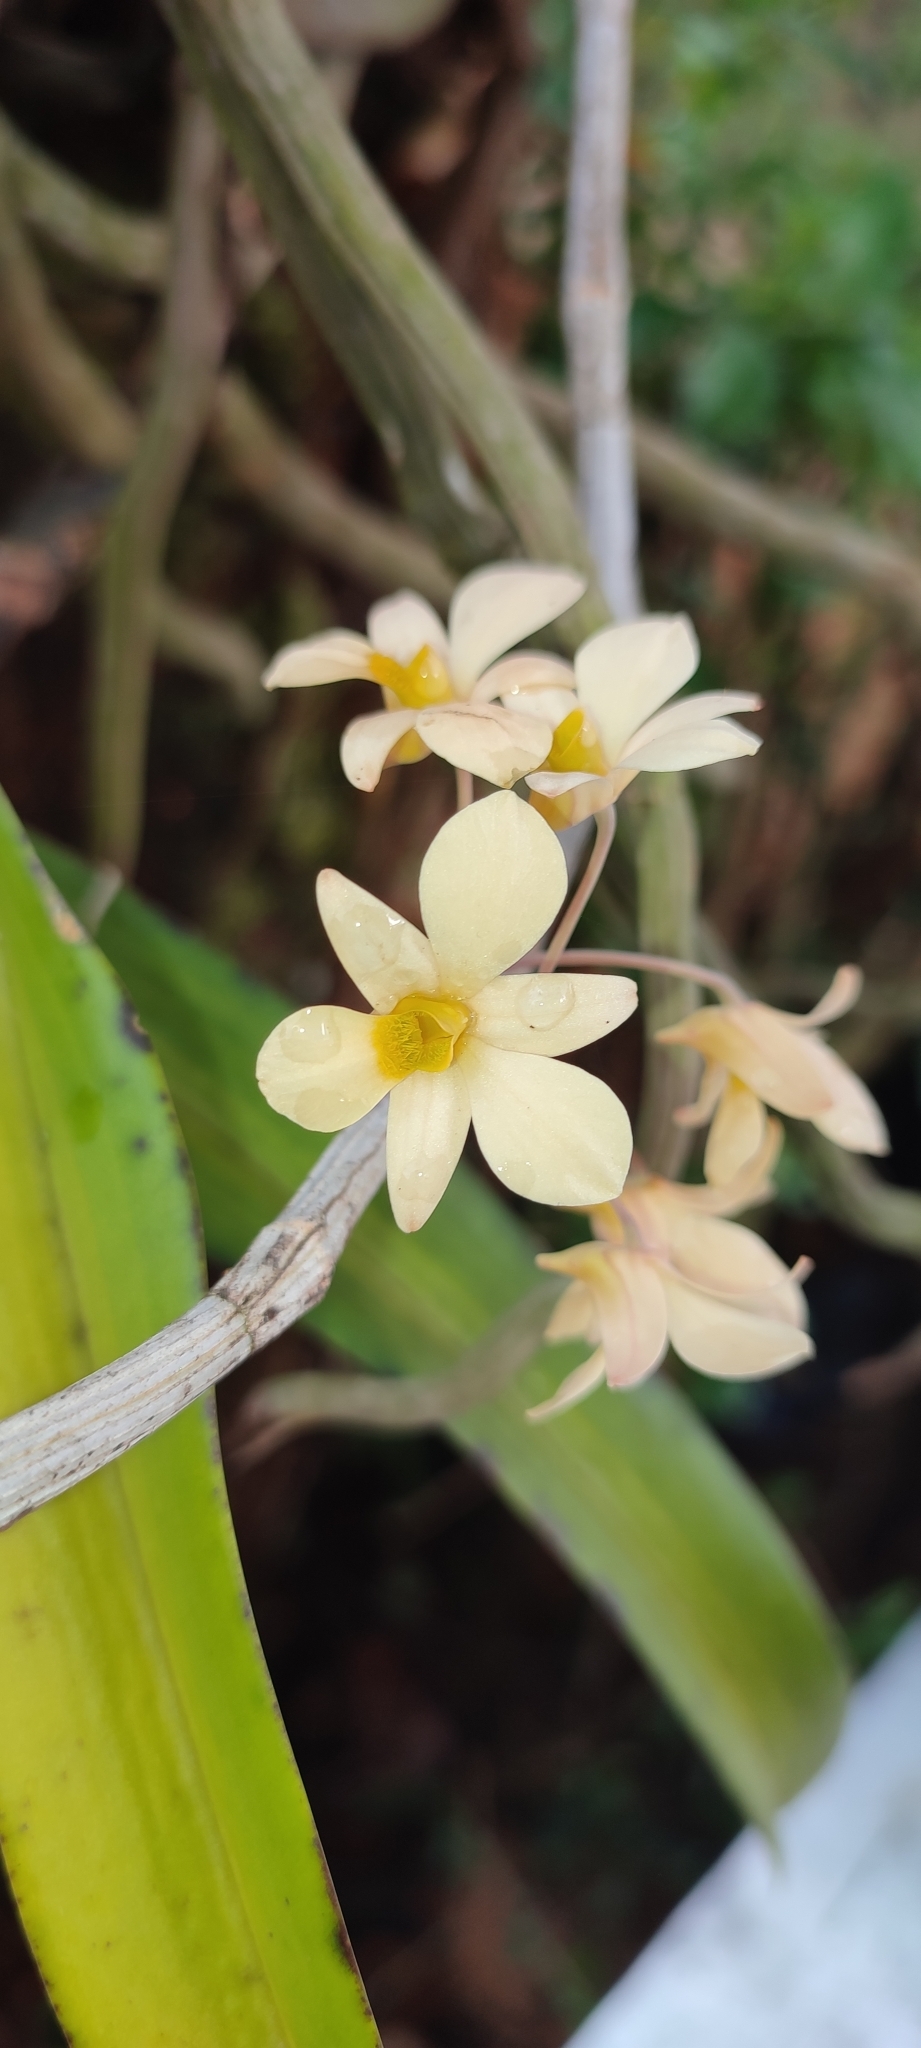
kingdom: Plantae
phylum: Tracheophyta
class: Liliopsida
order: Asparagales
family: Orchidaceae
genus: Dendrobium
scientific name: Dendrobium ovatum
